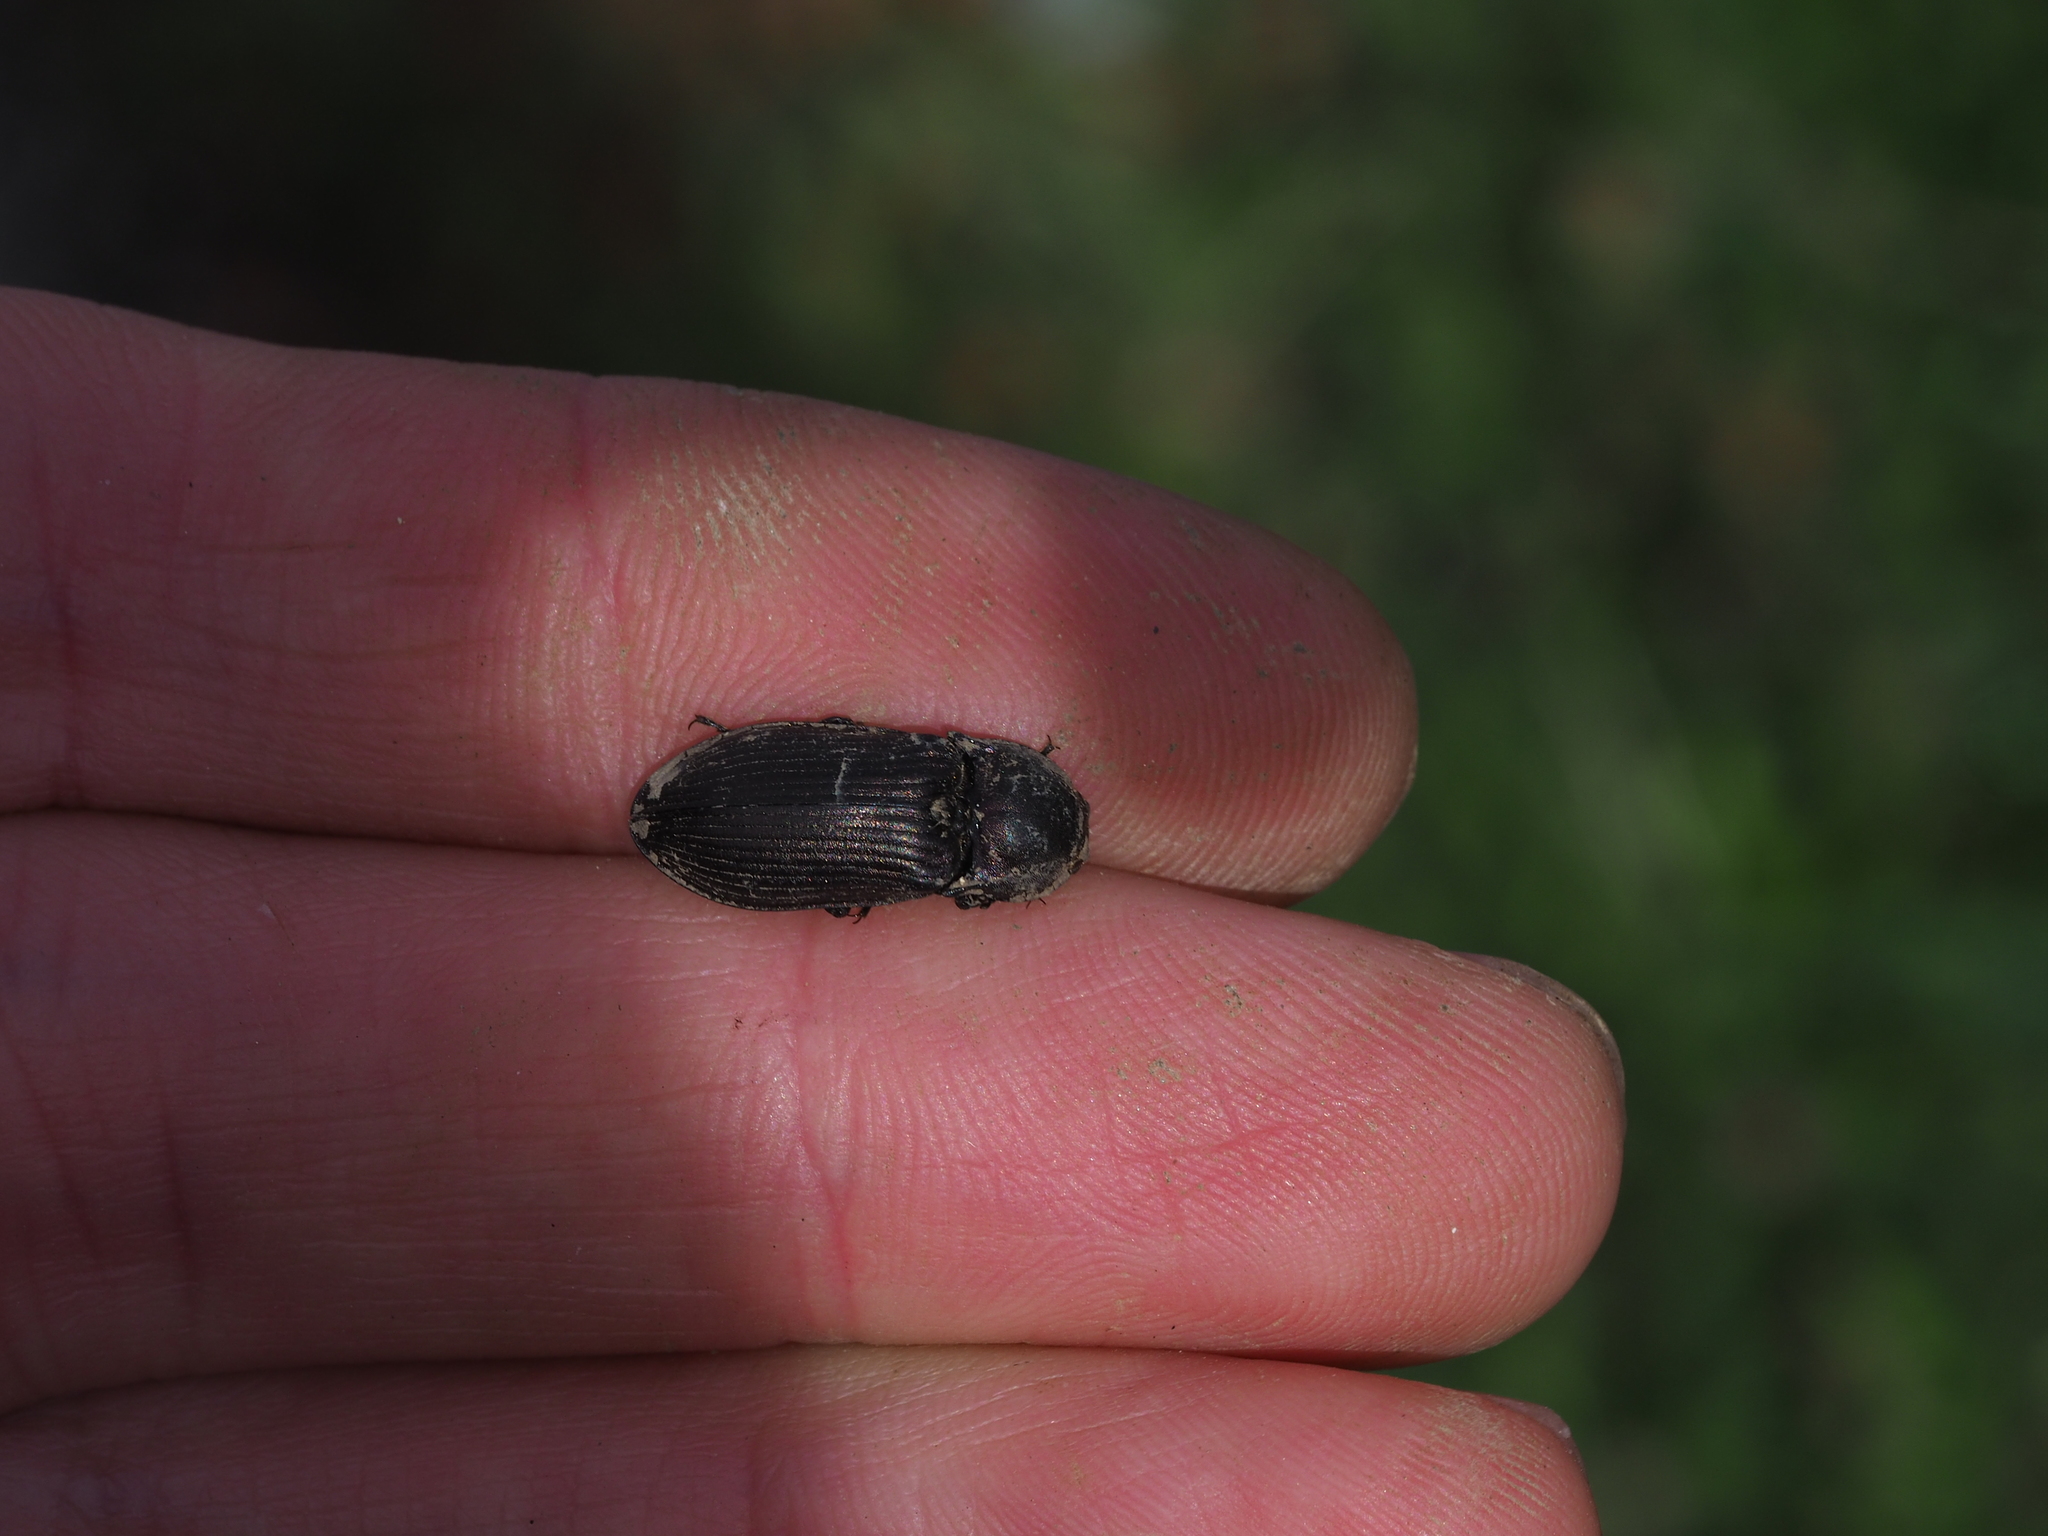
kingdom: Animalia
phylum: Arthropoda
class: Insecta
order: Coleoptera
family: Elateridae
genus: Selatosomus
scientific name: Selatosomus latus
